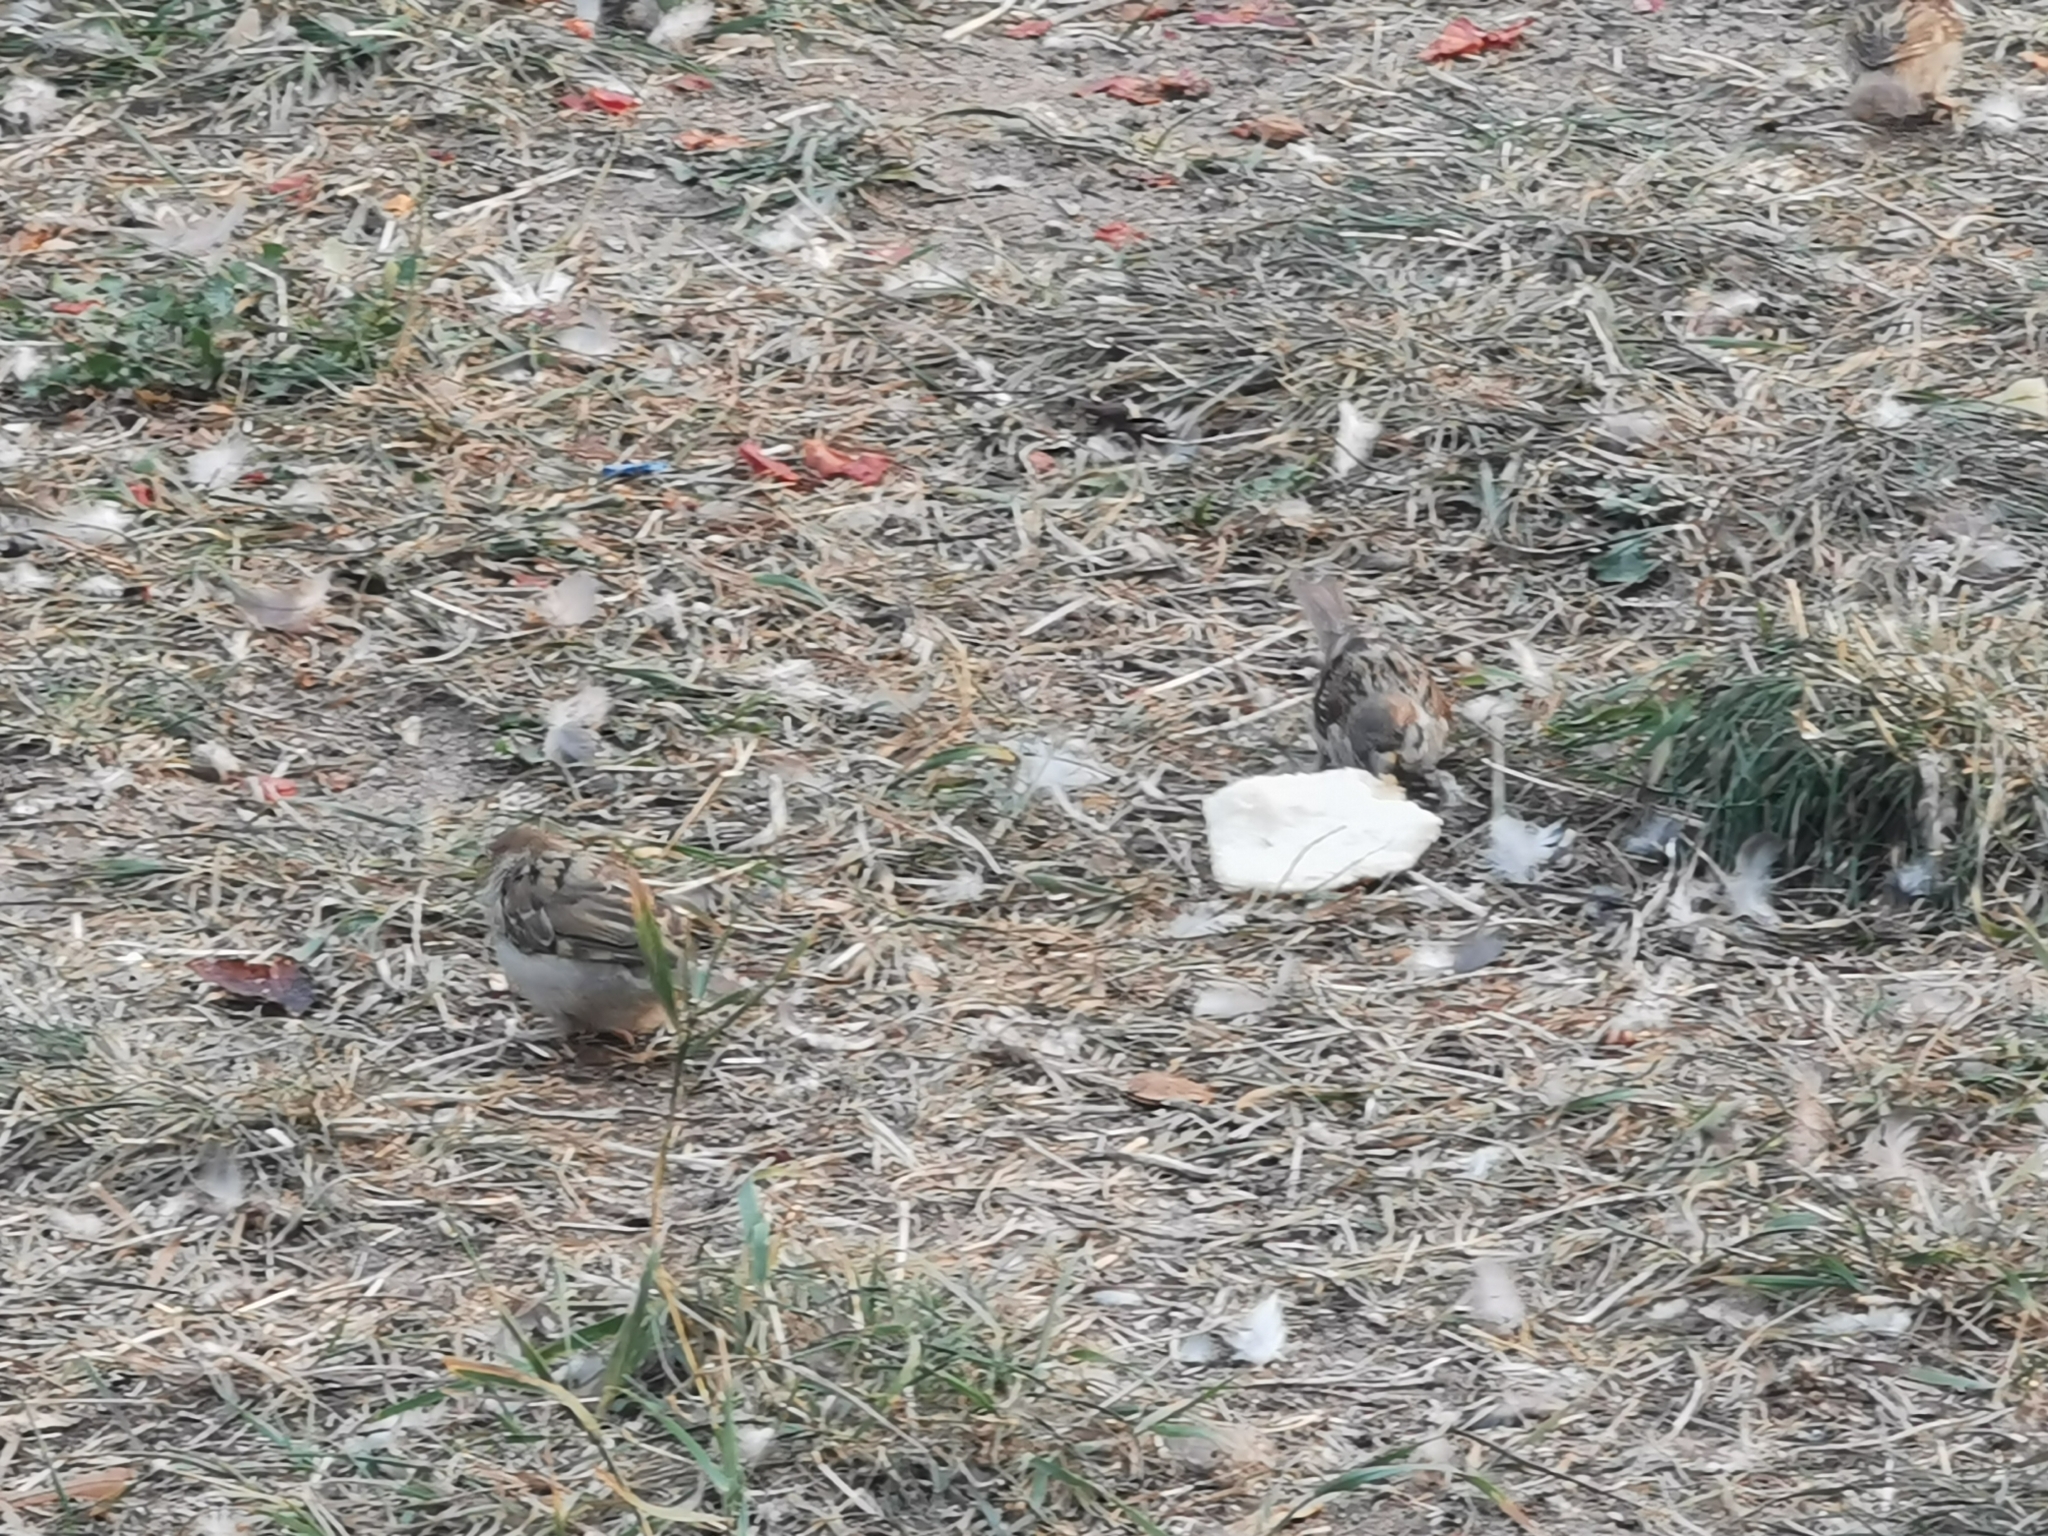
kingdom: Animalia
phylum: Chordata
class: Aves
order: Passeriformes
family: Passeridae
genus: Passer
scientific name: Passer montanus
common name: Eurasian tree sparrow
